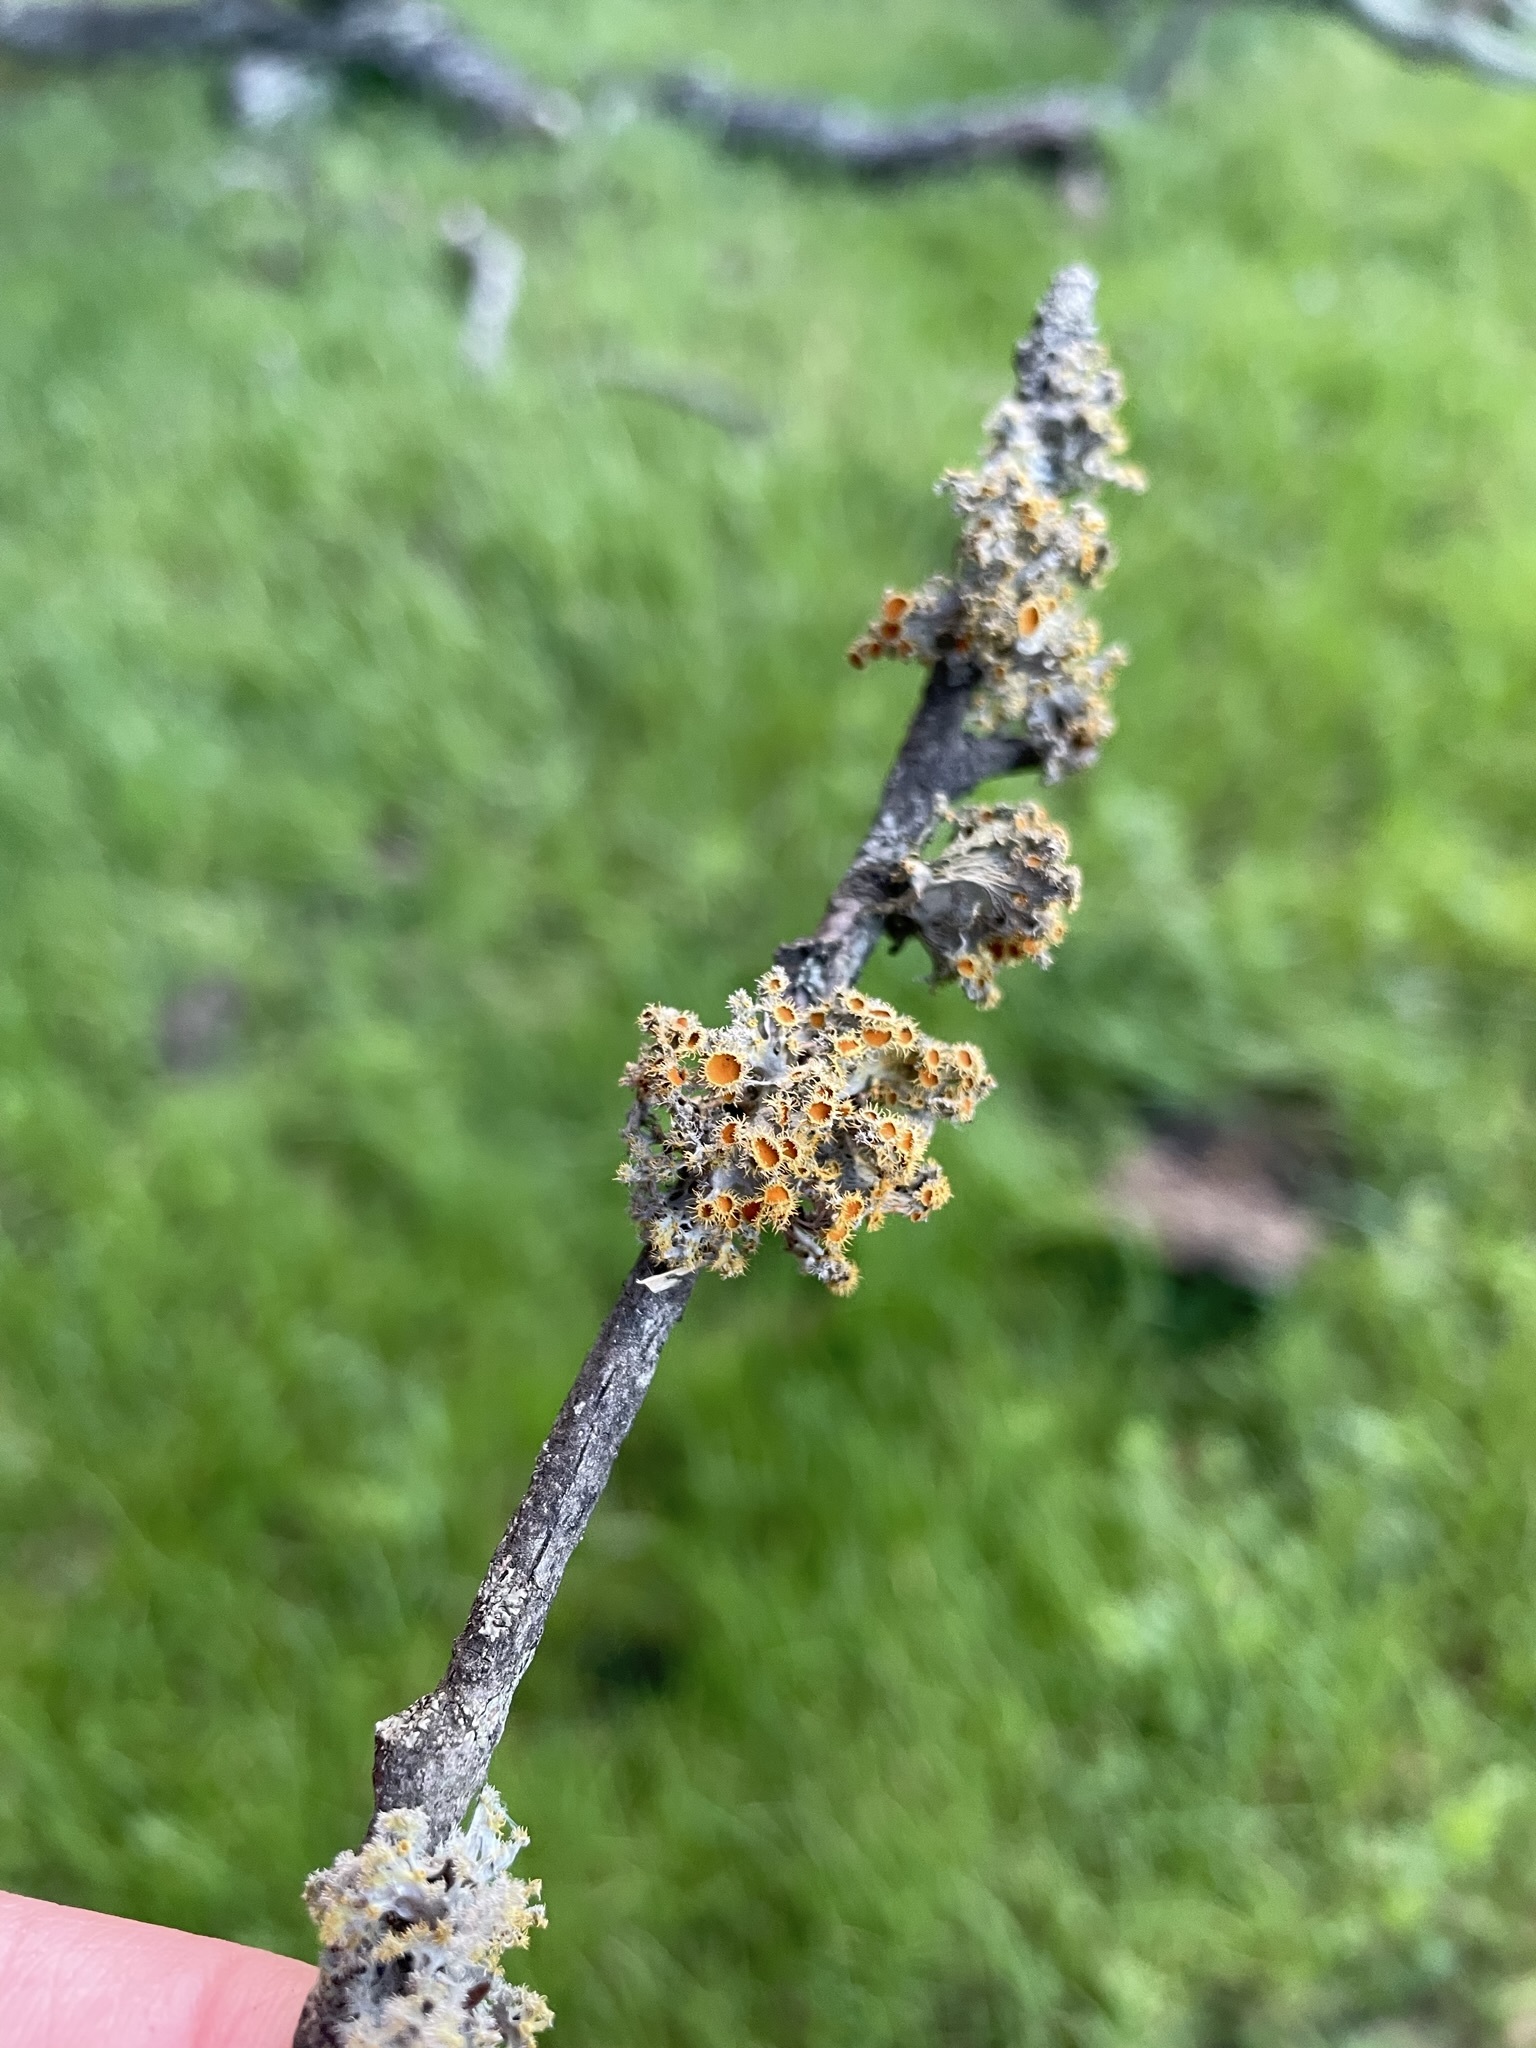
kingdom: Fungi
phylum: Ascomycota
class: Lecanoromycetes
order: Teloschistales
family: Teloschistaceae
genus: Niorma
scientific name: Niorma chrysophthalma
